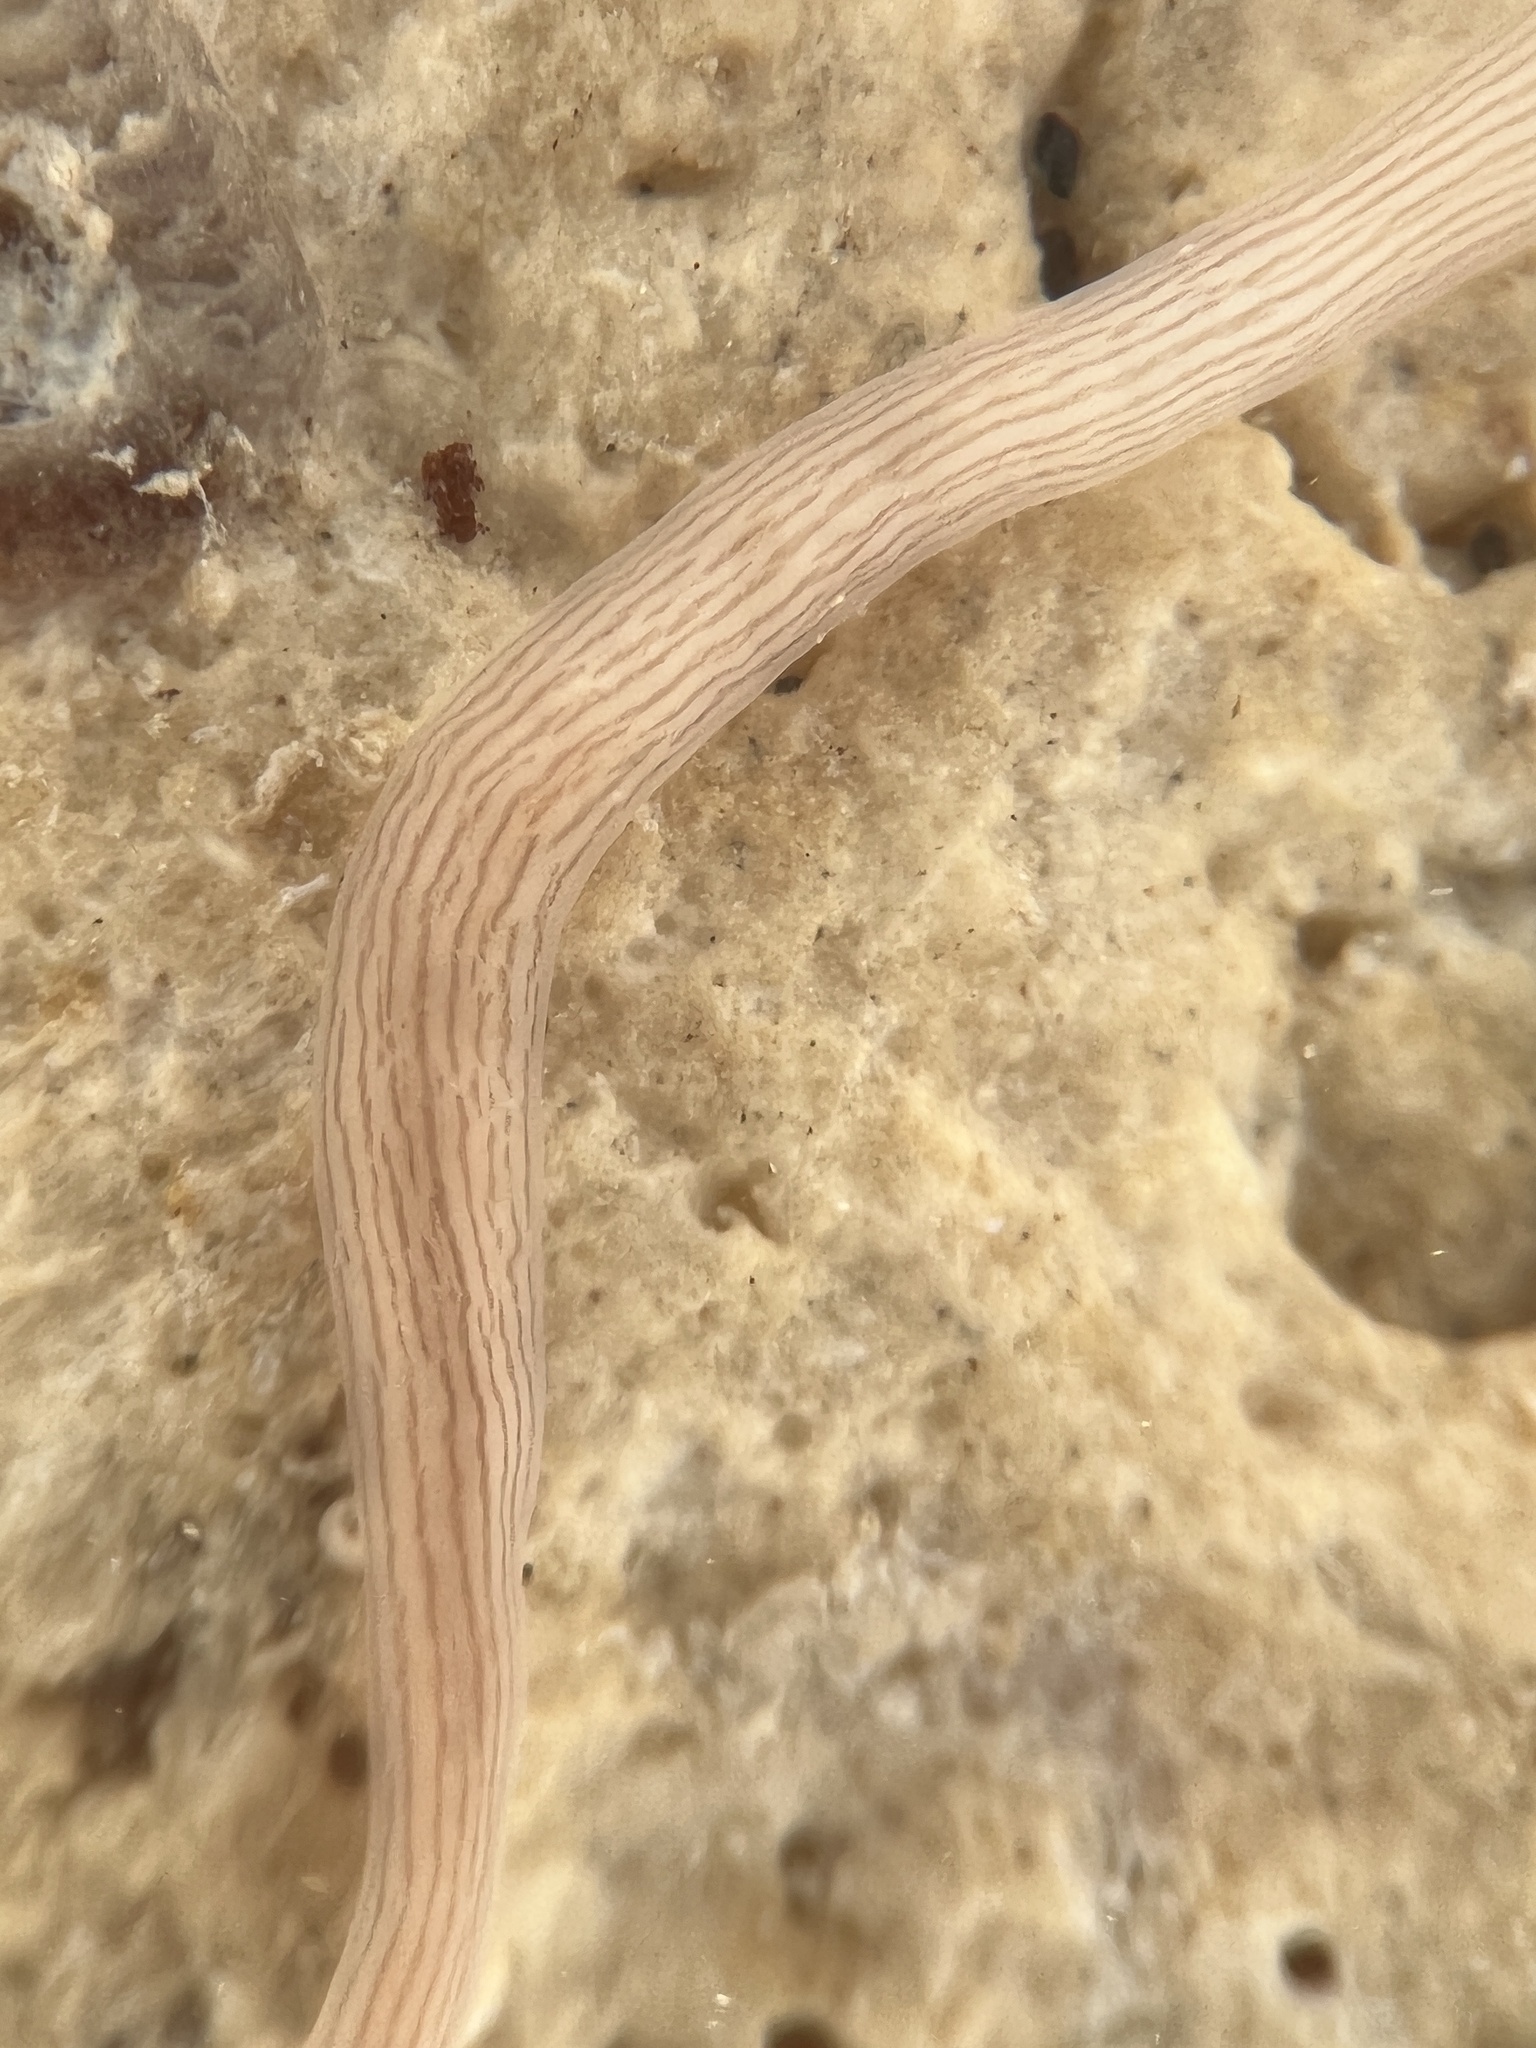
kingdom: Animalia
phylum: Nemertea
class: Pilidiophora
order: Heteronemertea
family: Valenciniidae
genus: Baseodiscus
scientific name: Baseodiscus delineatus
